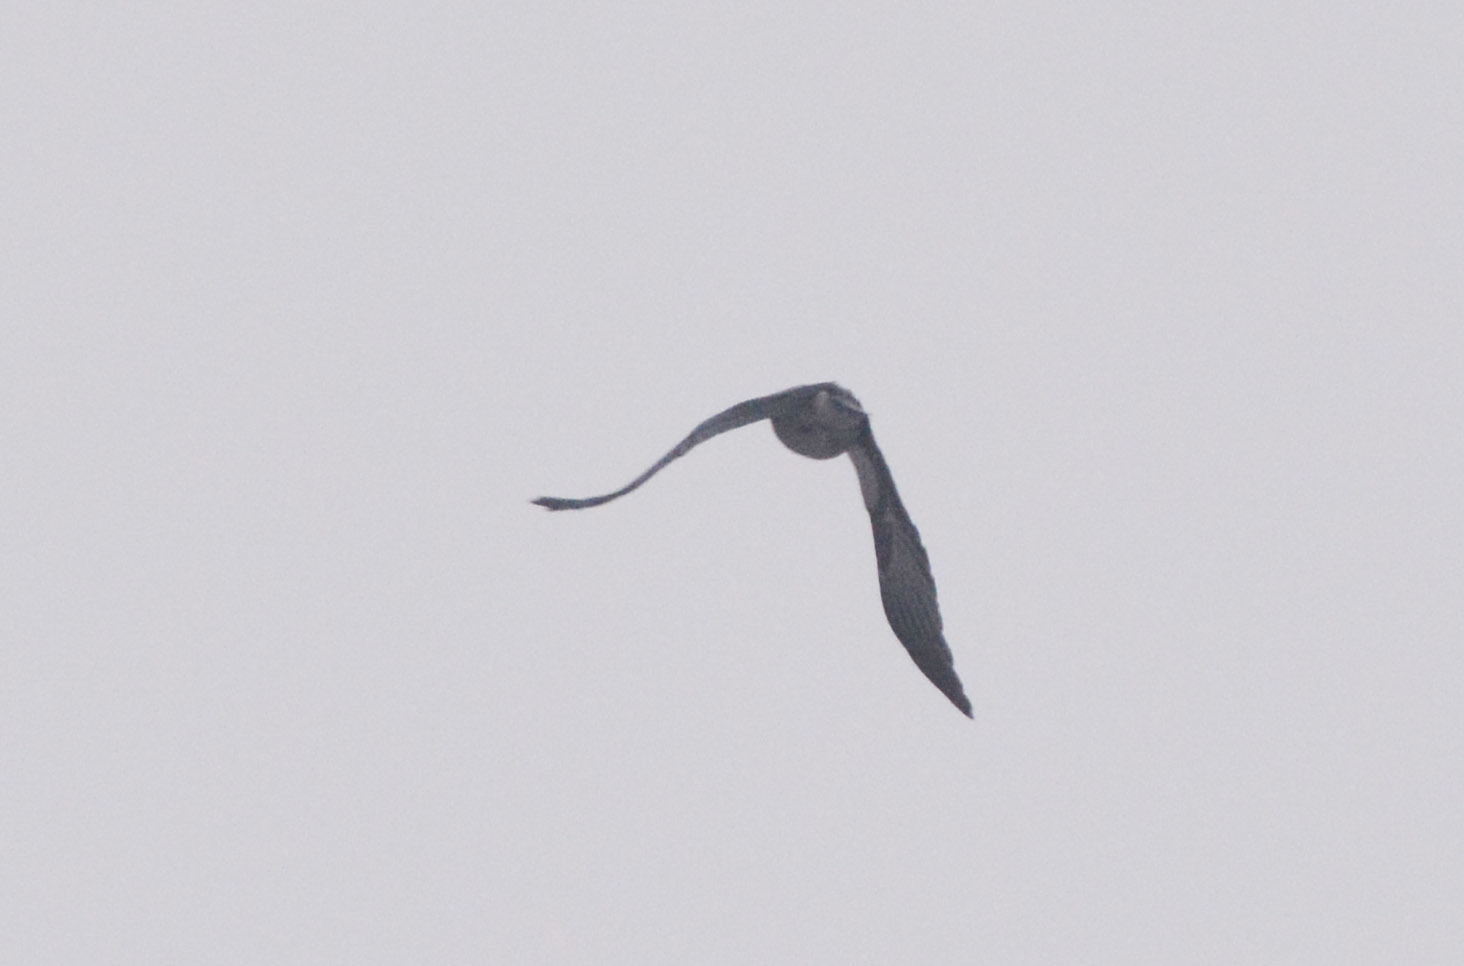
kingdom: Animalia
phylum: Chordata
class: Aves
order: Accipitriformes
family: Accipitridae
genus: Buteo
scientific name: Buteo lagopus
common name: Rough-legged buzzard
